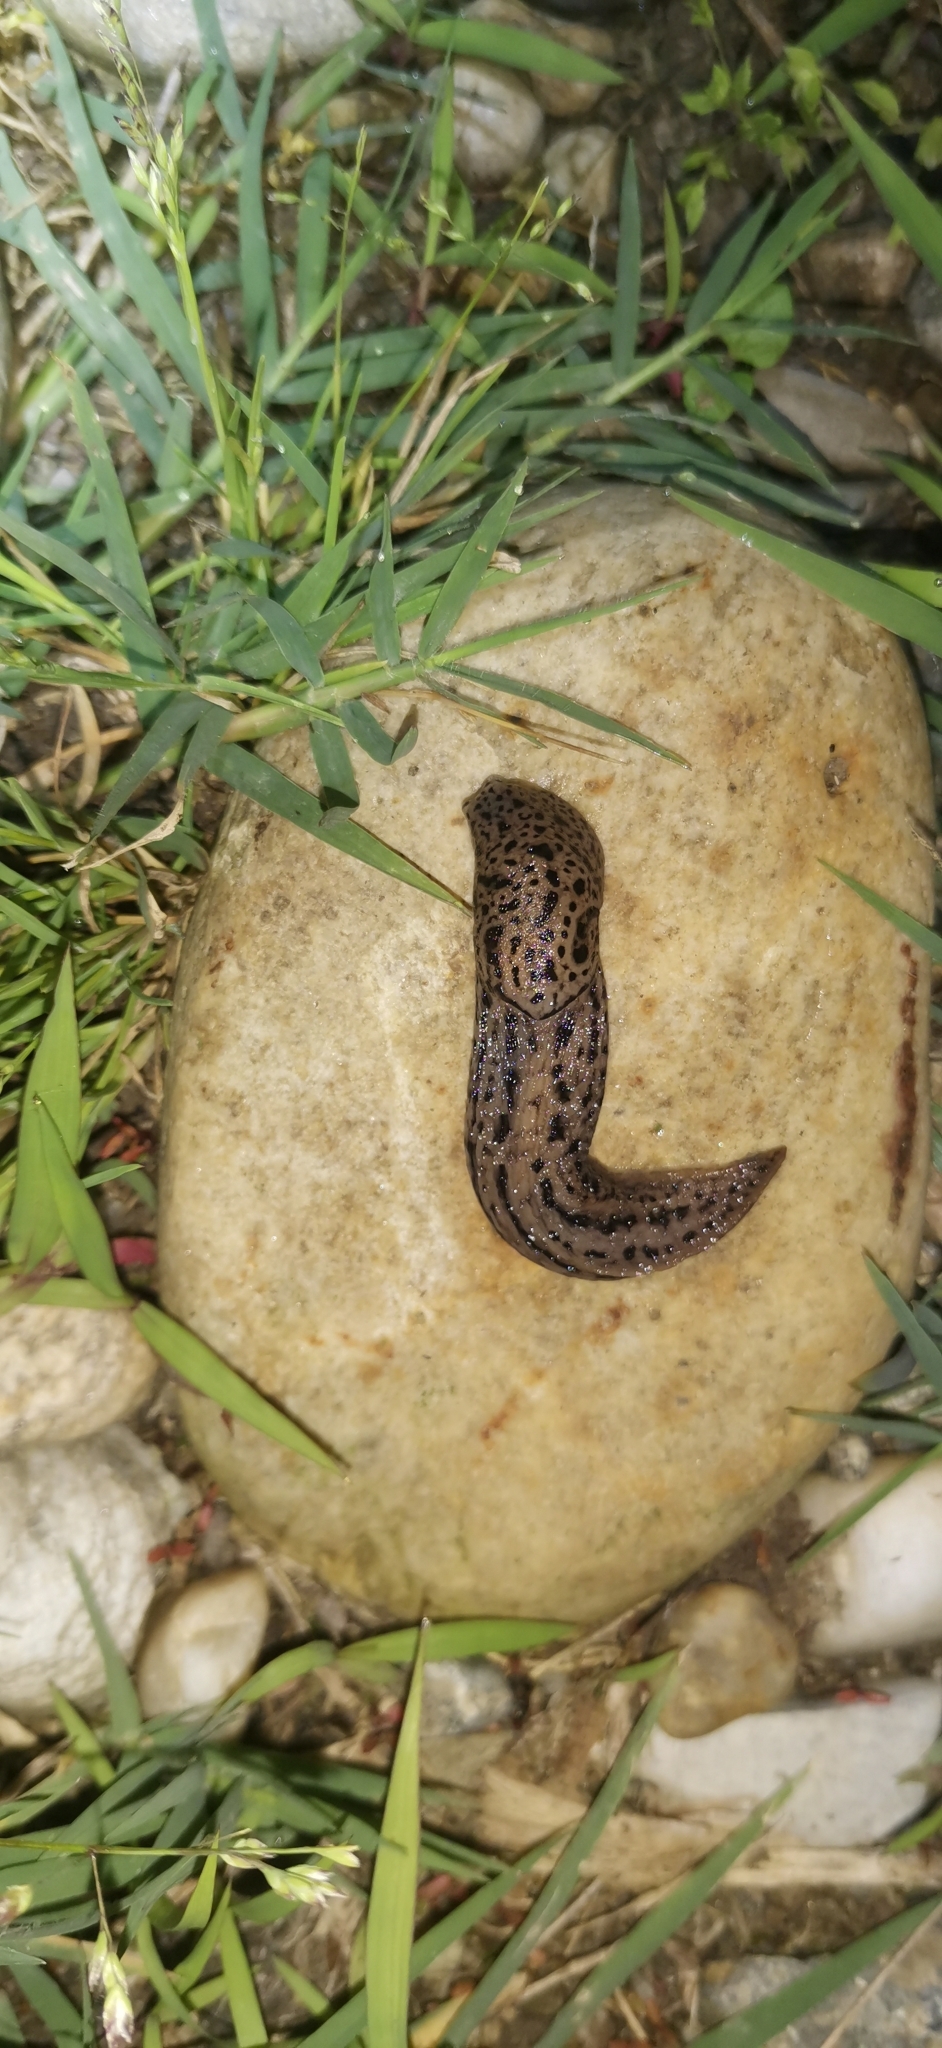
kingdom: Animalia
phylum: Mollusca
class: Gastropoda
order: Stylommatophora
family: Limacidae
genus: Limax
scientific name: Limax maximus
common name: Great grey slug
